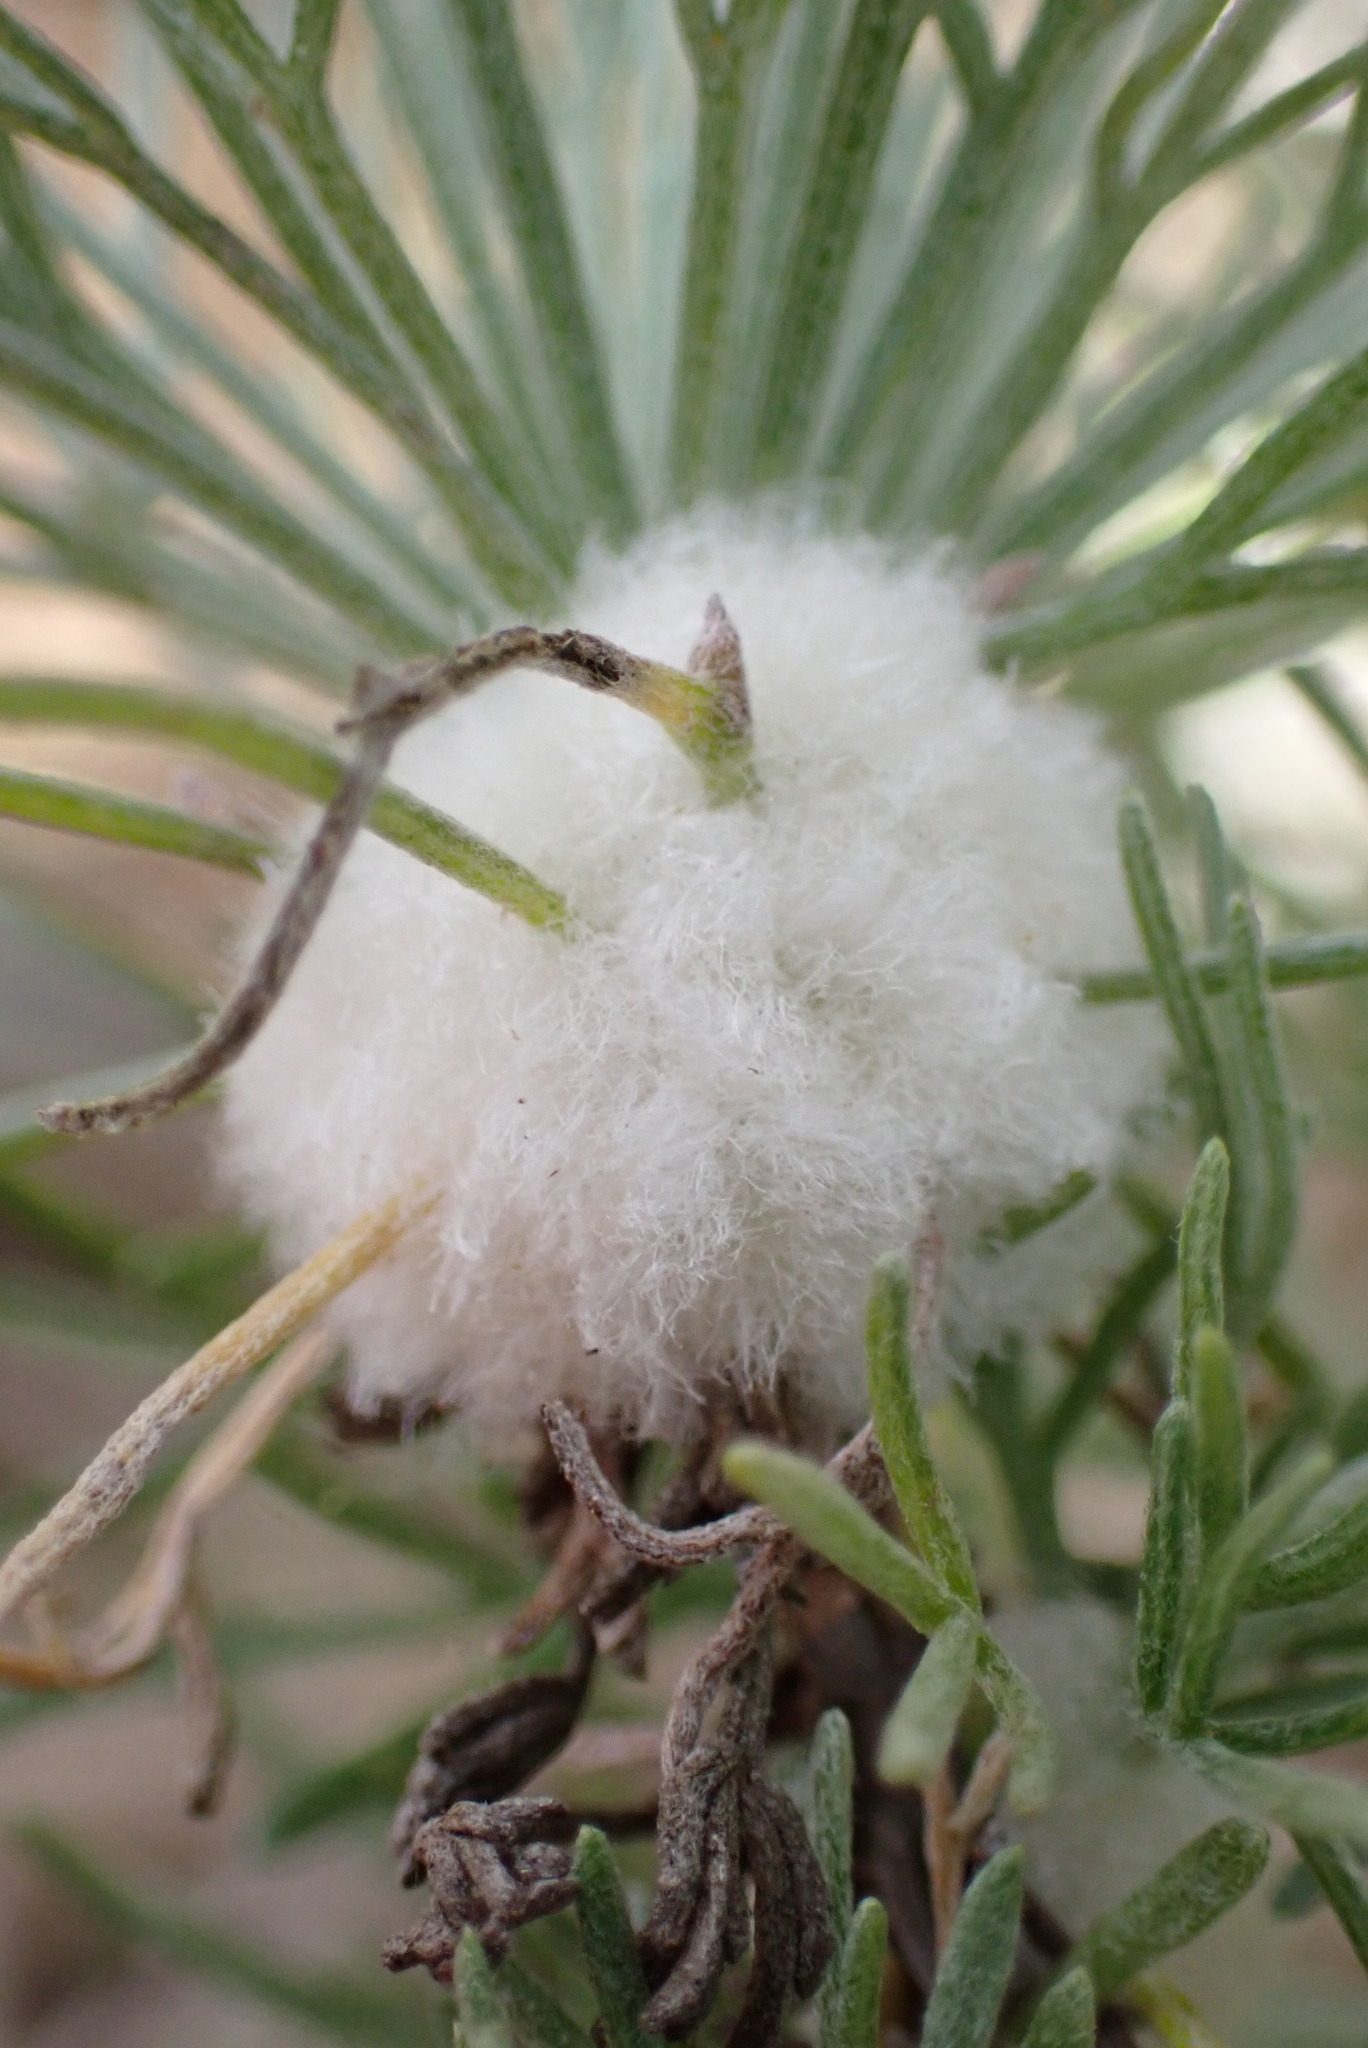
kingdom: Animalia
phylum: Arthropoda
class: Insecta
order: Diptera
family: Cecidomyiidae
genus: Rhopalomyia
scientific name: Rhopalomyia floccosa
